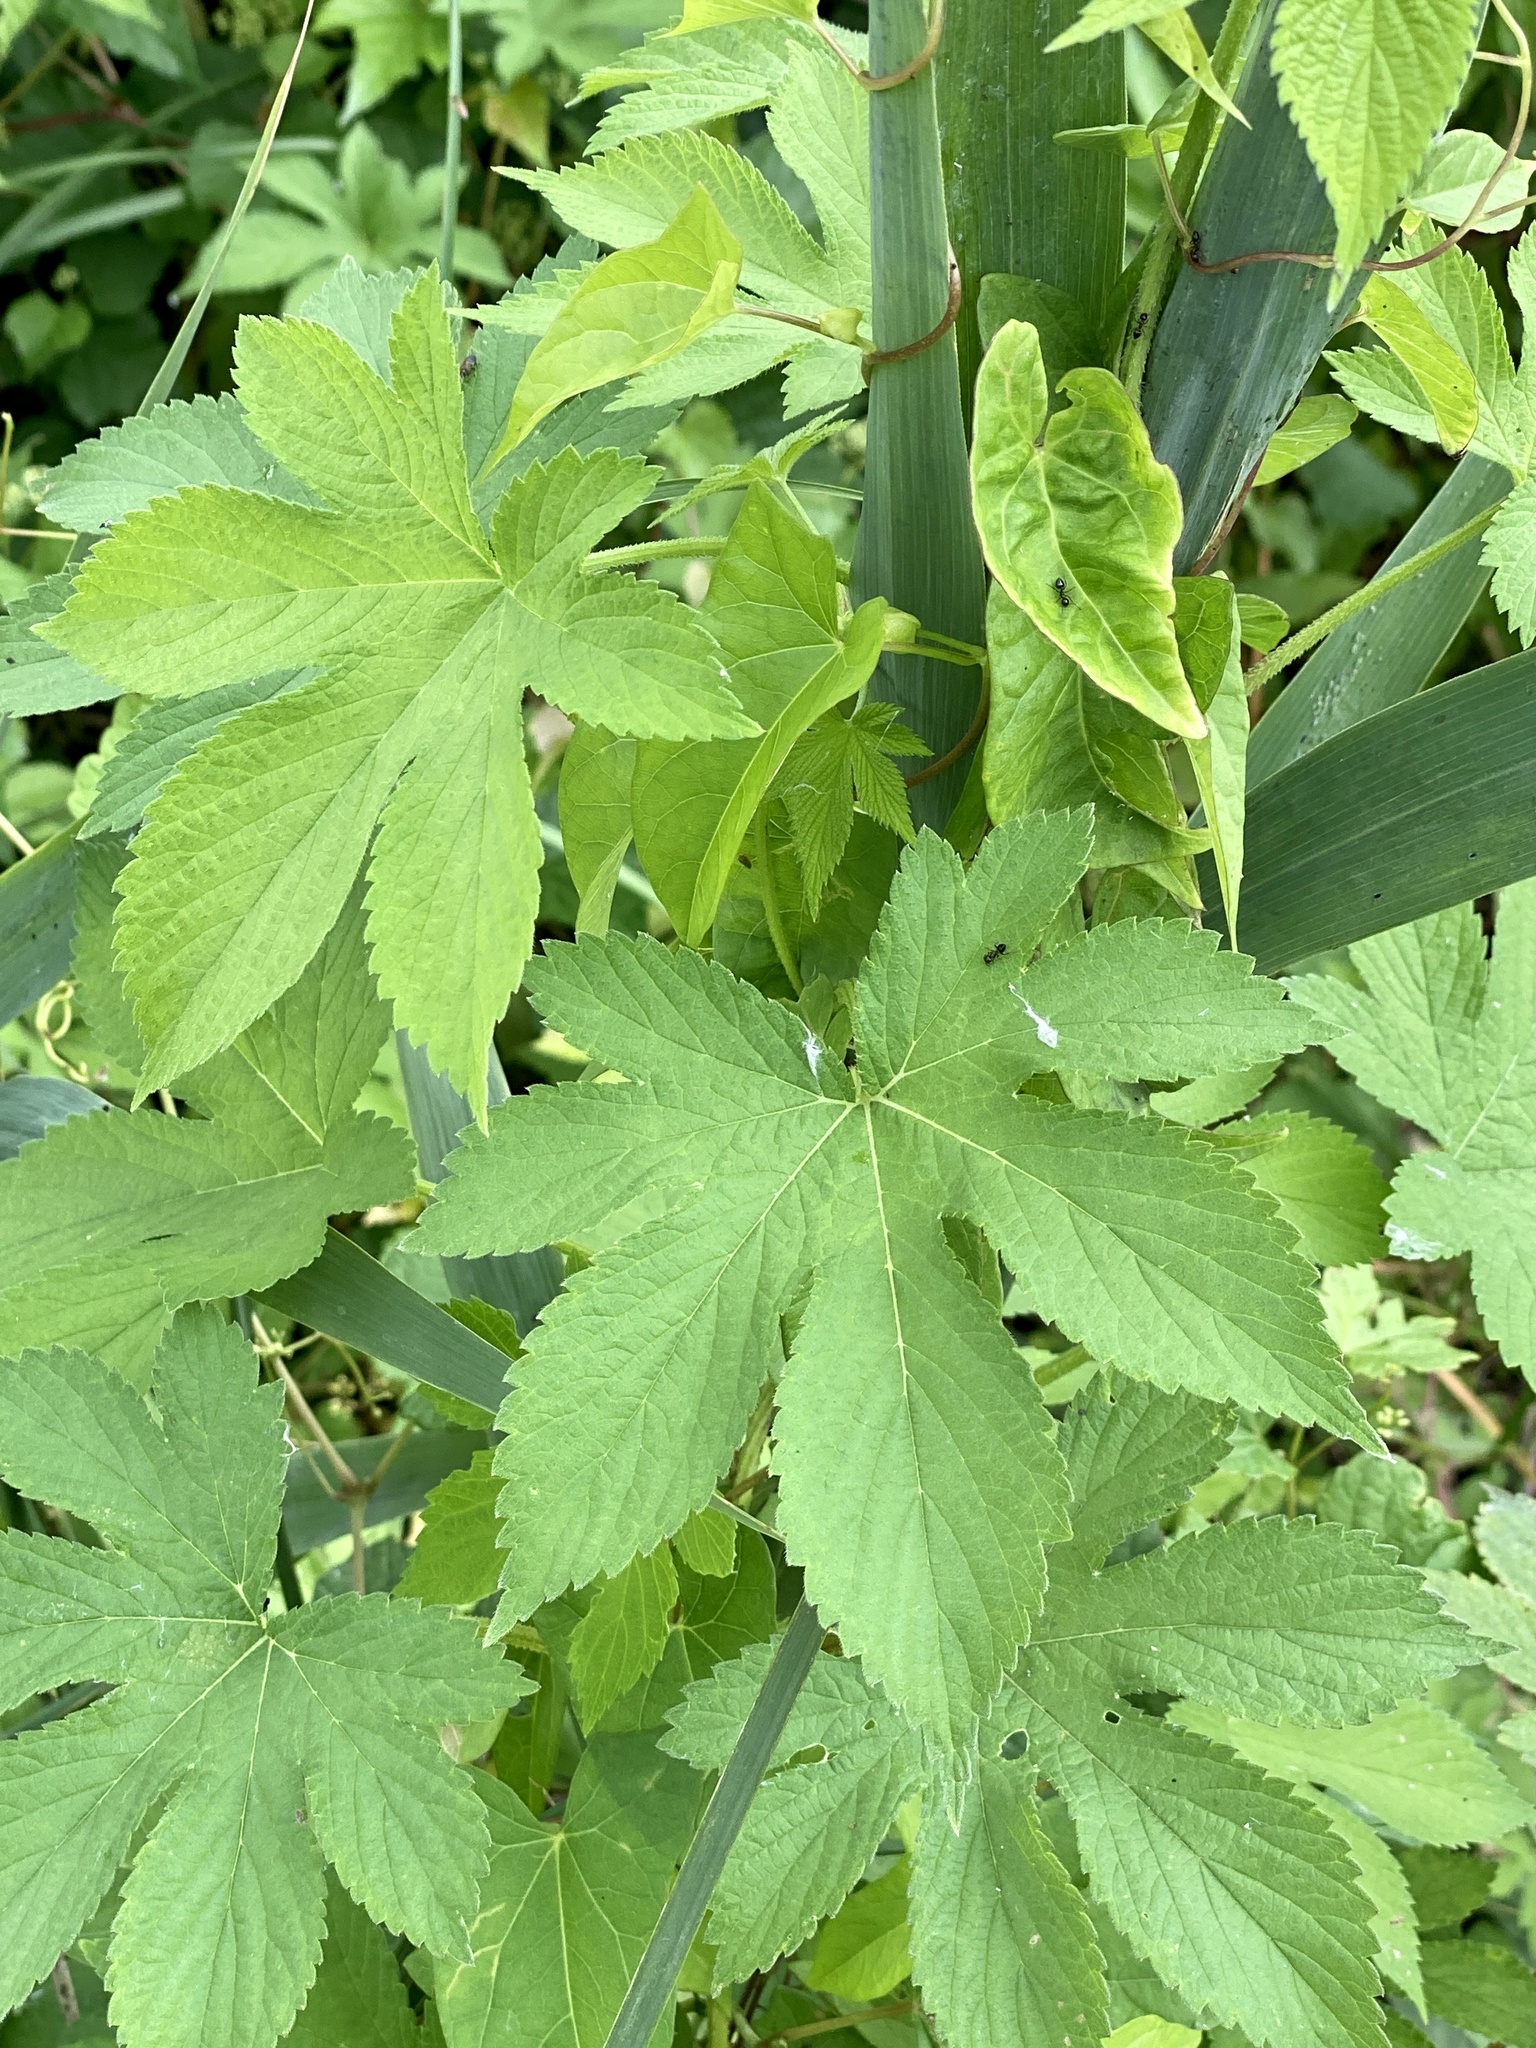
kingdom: Plantae
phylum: Tracheophyta
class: Magnoliopsida
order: Rosales
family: Cannabaceae
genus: Humulus
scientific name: Humulus scandens
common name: Japanese hop
